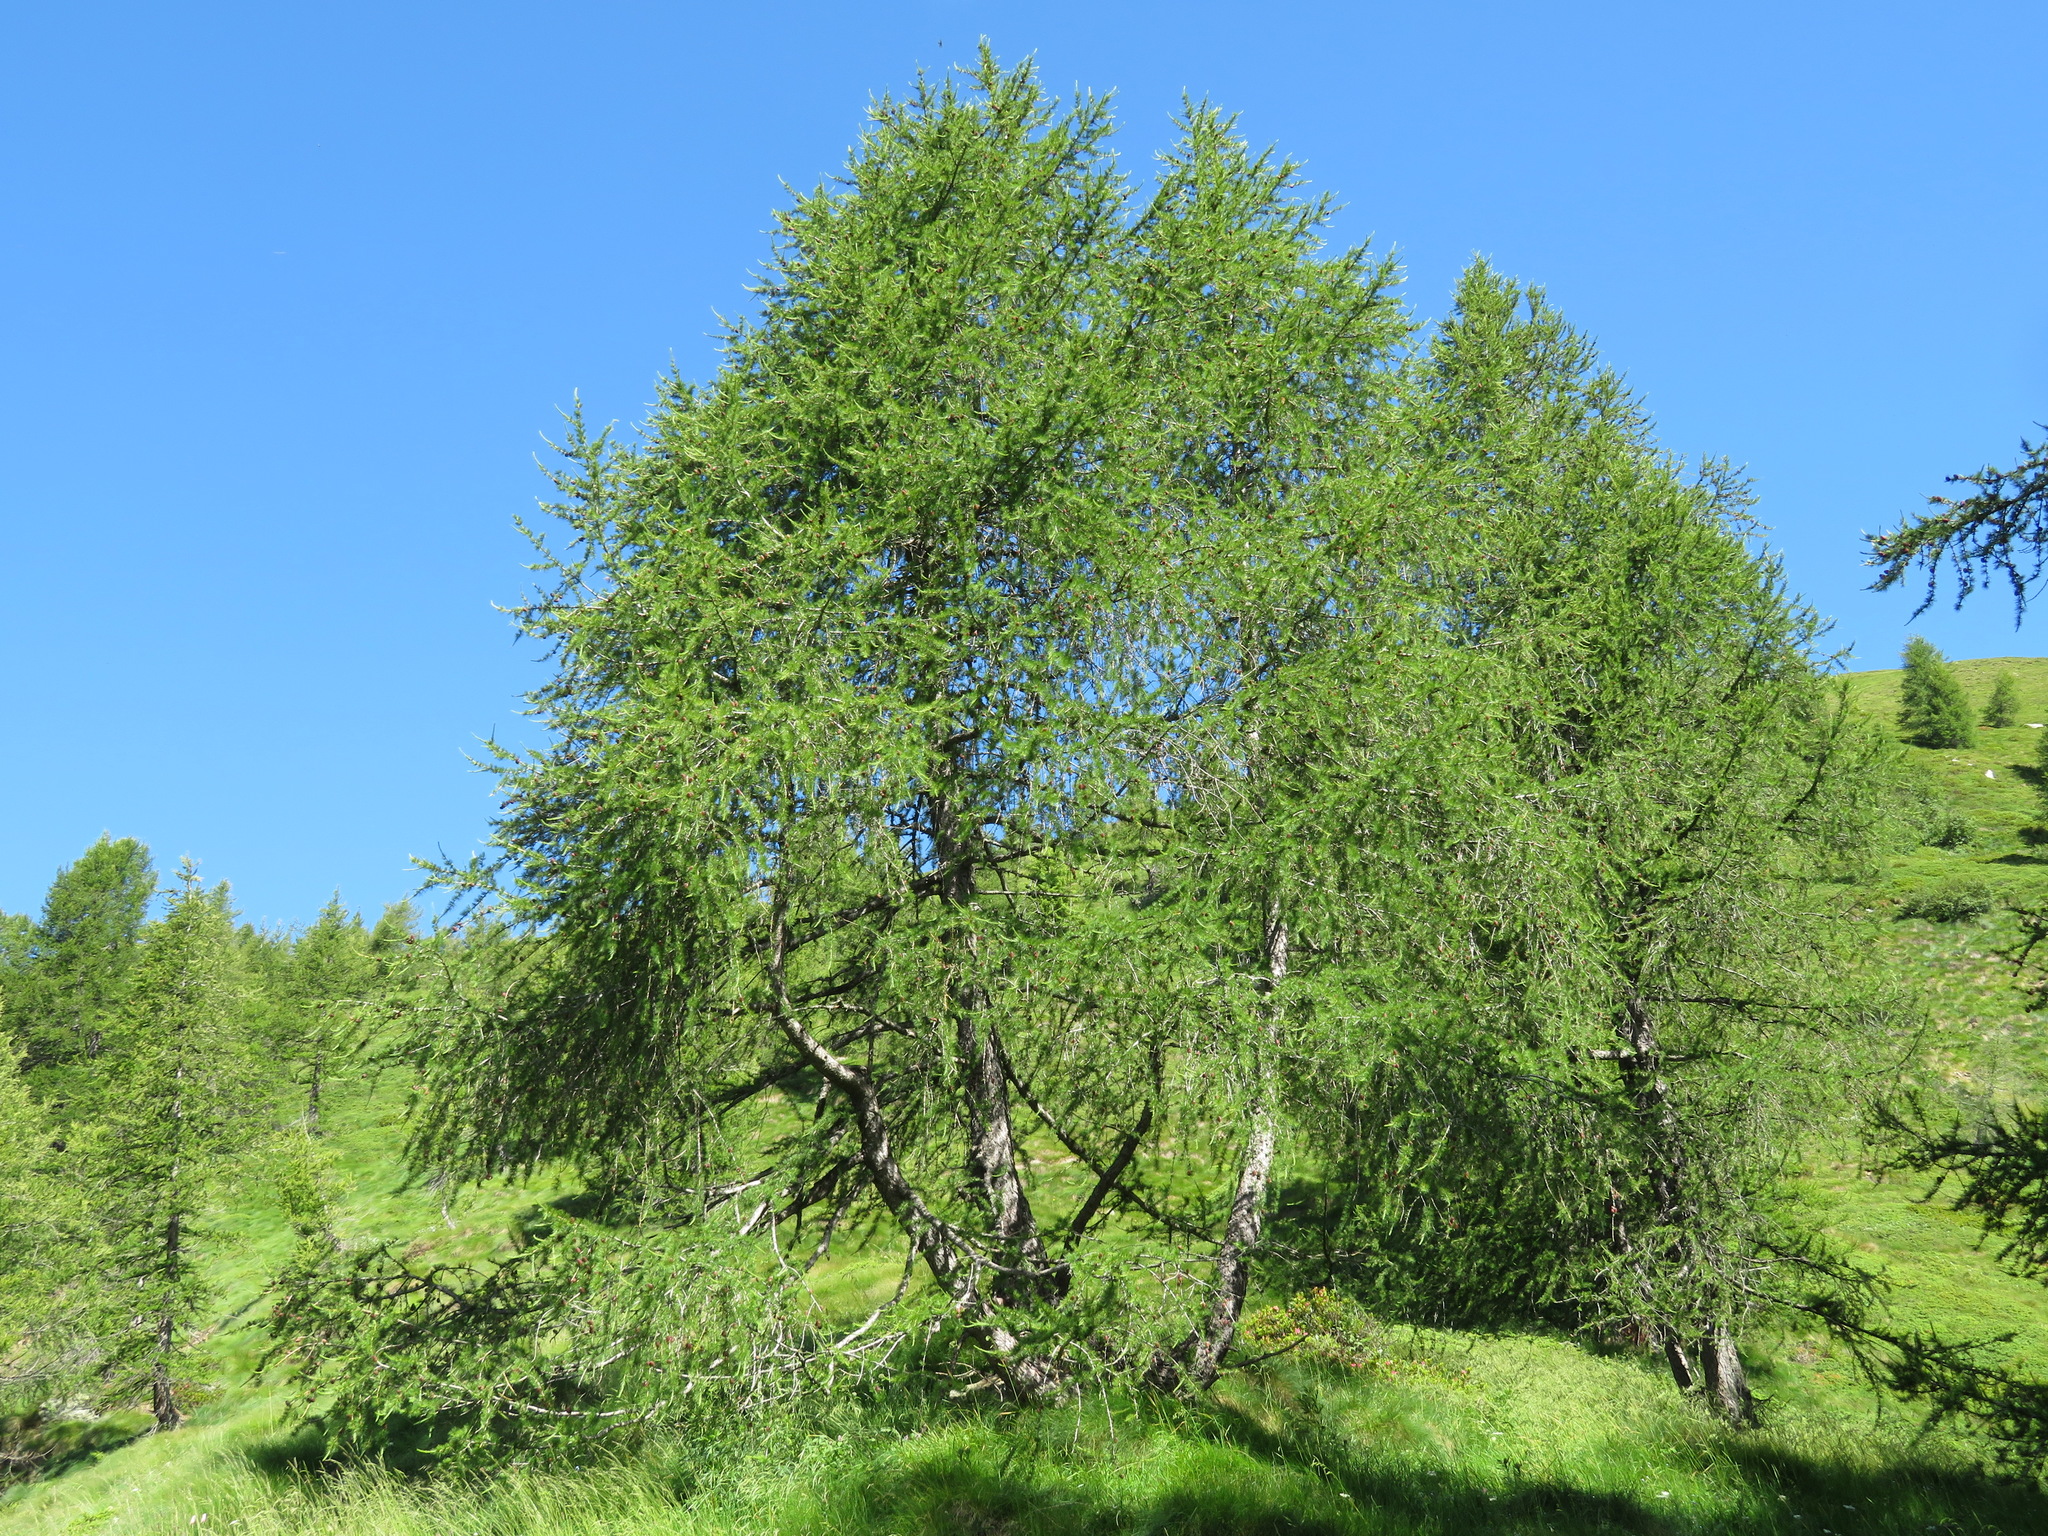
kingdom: Plantae
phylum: Tracheophyta
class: Pinopsida
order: Pinales
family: Pinaceae
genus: Larix
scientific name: Larix decidua
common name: European larch
